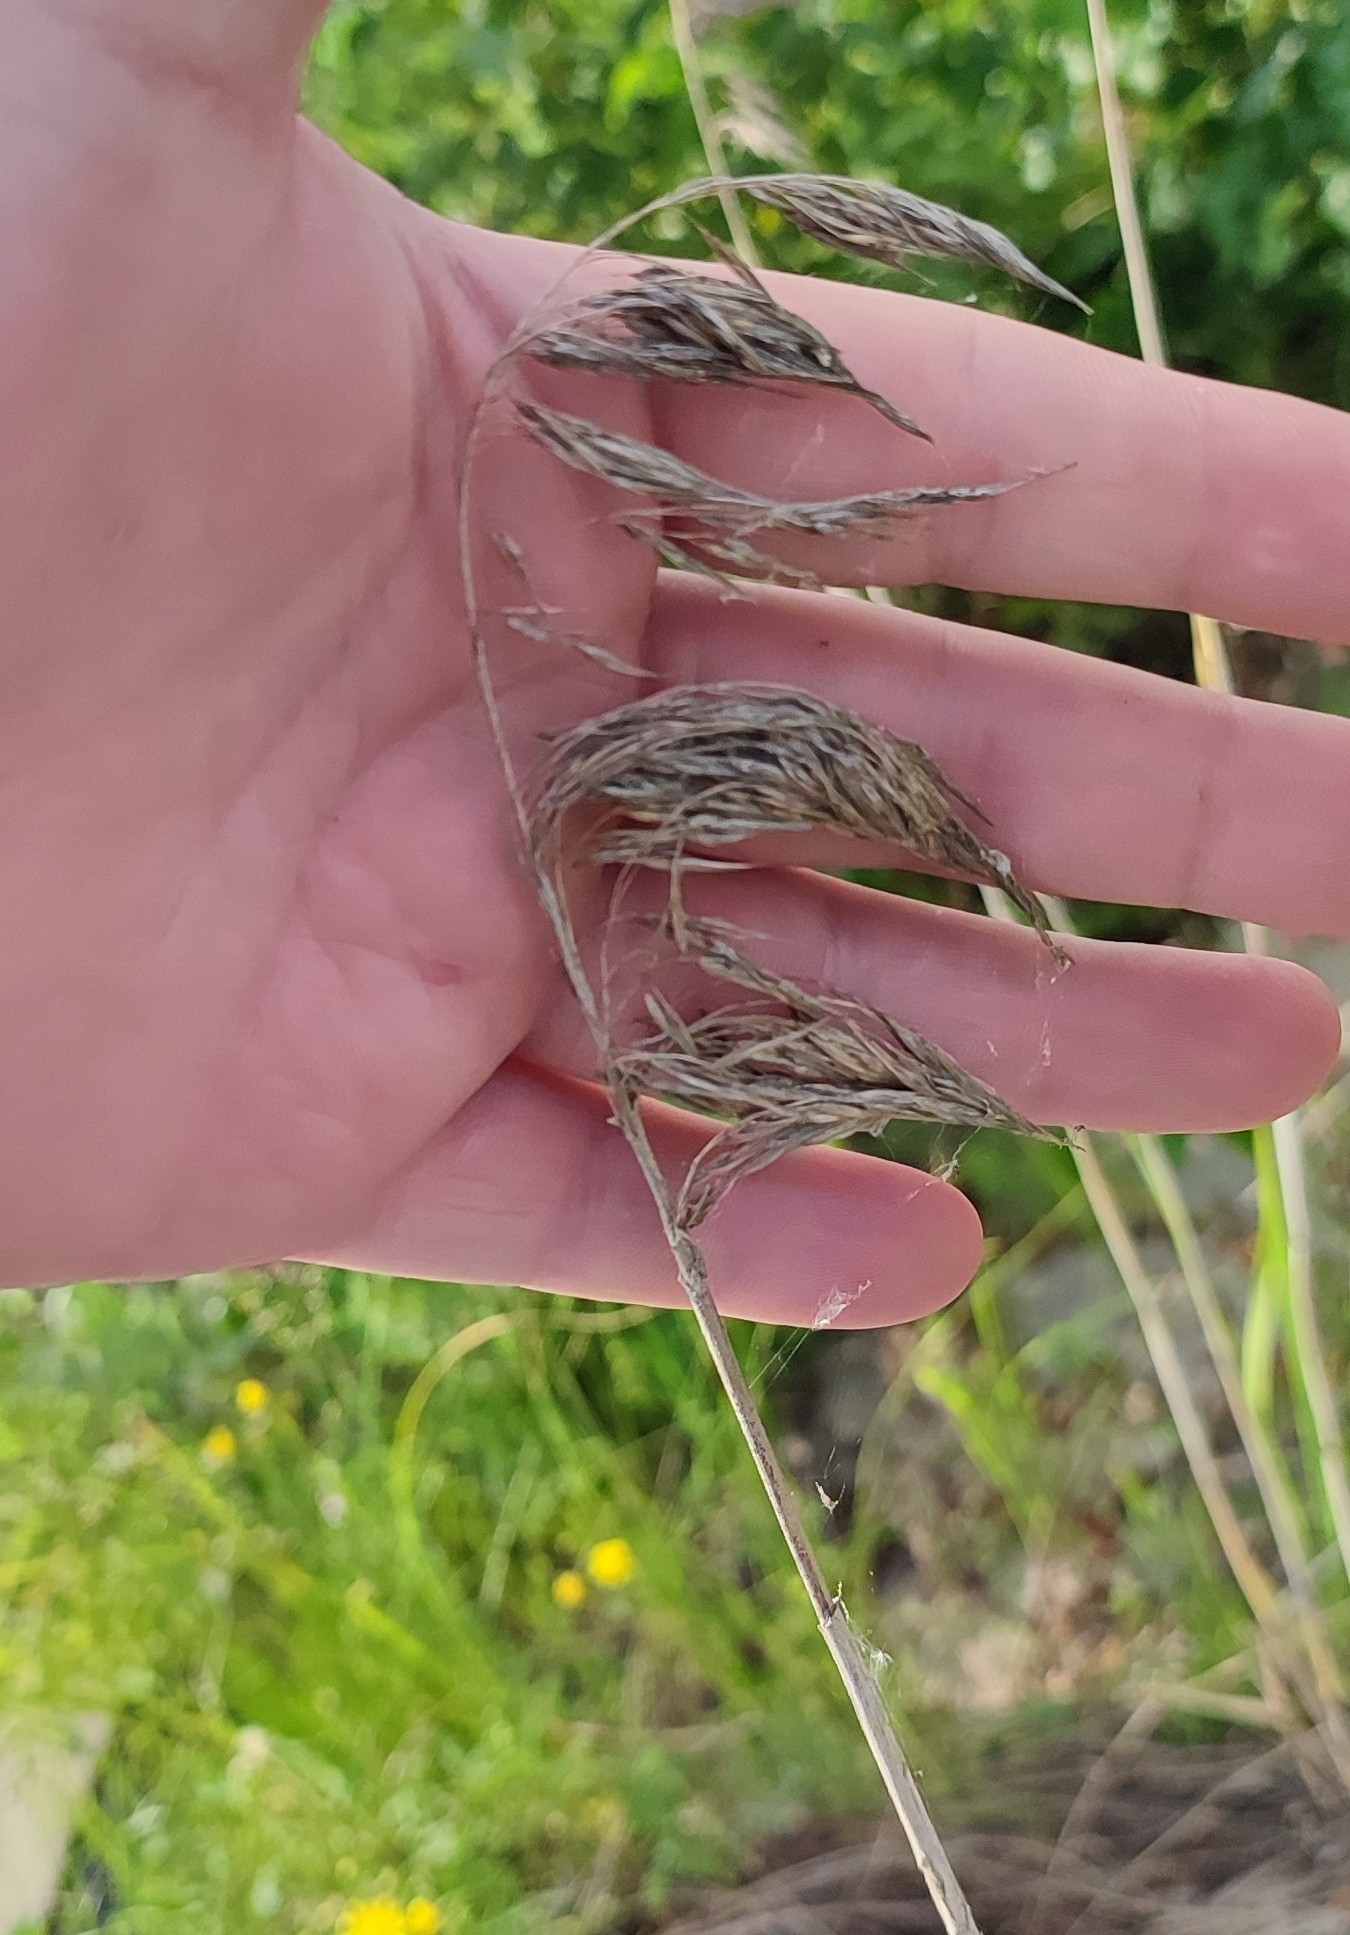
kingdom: Plantae
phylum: Tracheophyta
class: Liliopsida
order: Poales
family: Poaceae
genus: Phragmites
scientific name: Phragmites australis
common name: Common reed
